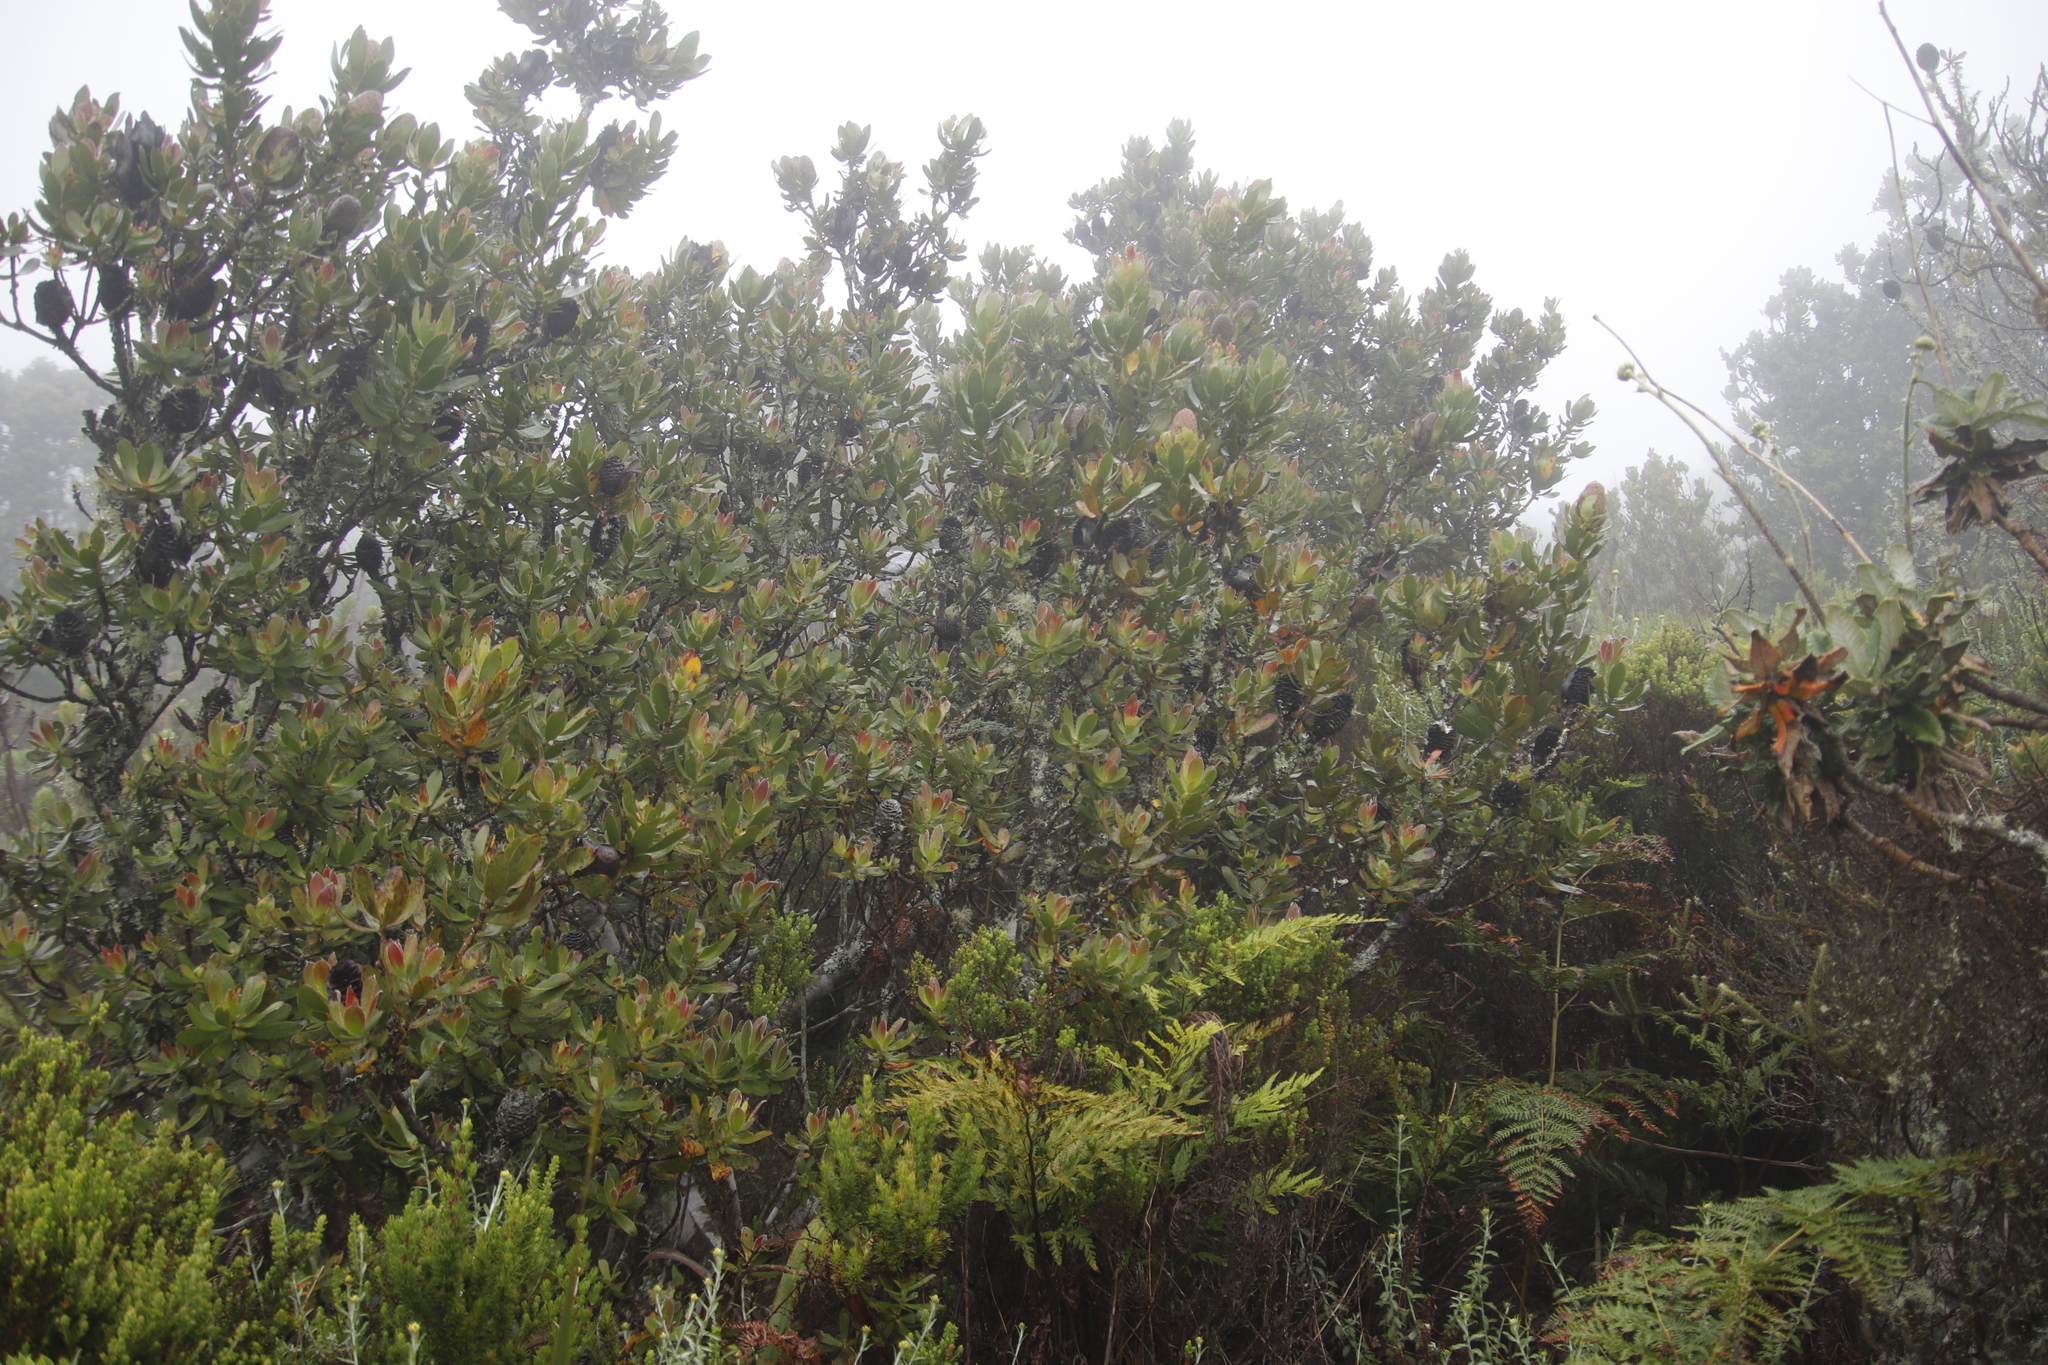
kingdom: Plantae
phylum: Tracheophyta
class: Magnoliopsida
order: Proteales
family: Proteaceae
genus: Leucadendron
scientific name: Leucadendron strobilinum
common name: Mountain rose
